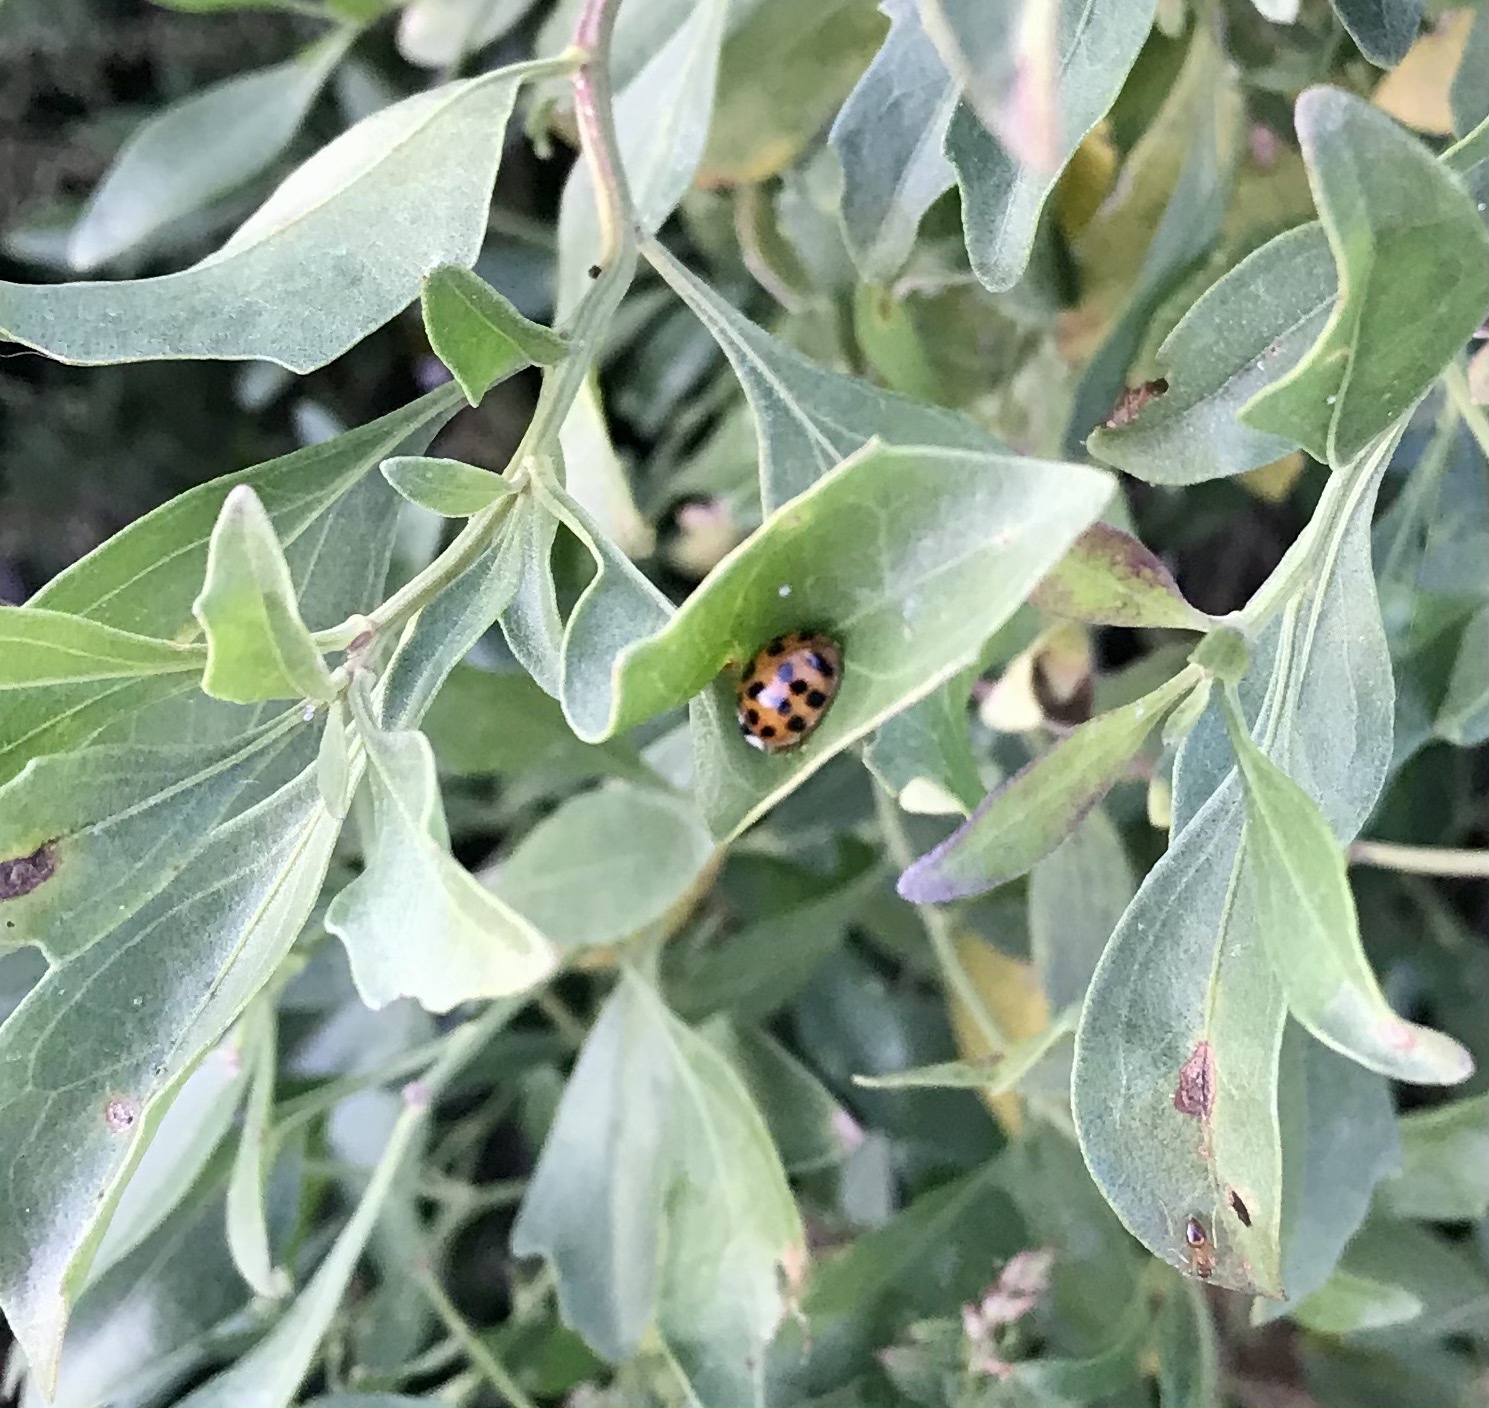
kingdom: Animalia
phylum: Arthropoda
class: Insecta
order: Coleoptera
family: Coccinellidae
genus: Harmonia
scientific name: Harmonia axyridis
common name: Harlequin ladybird
